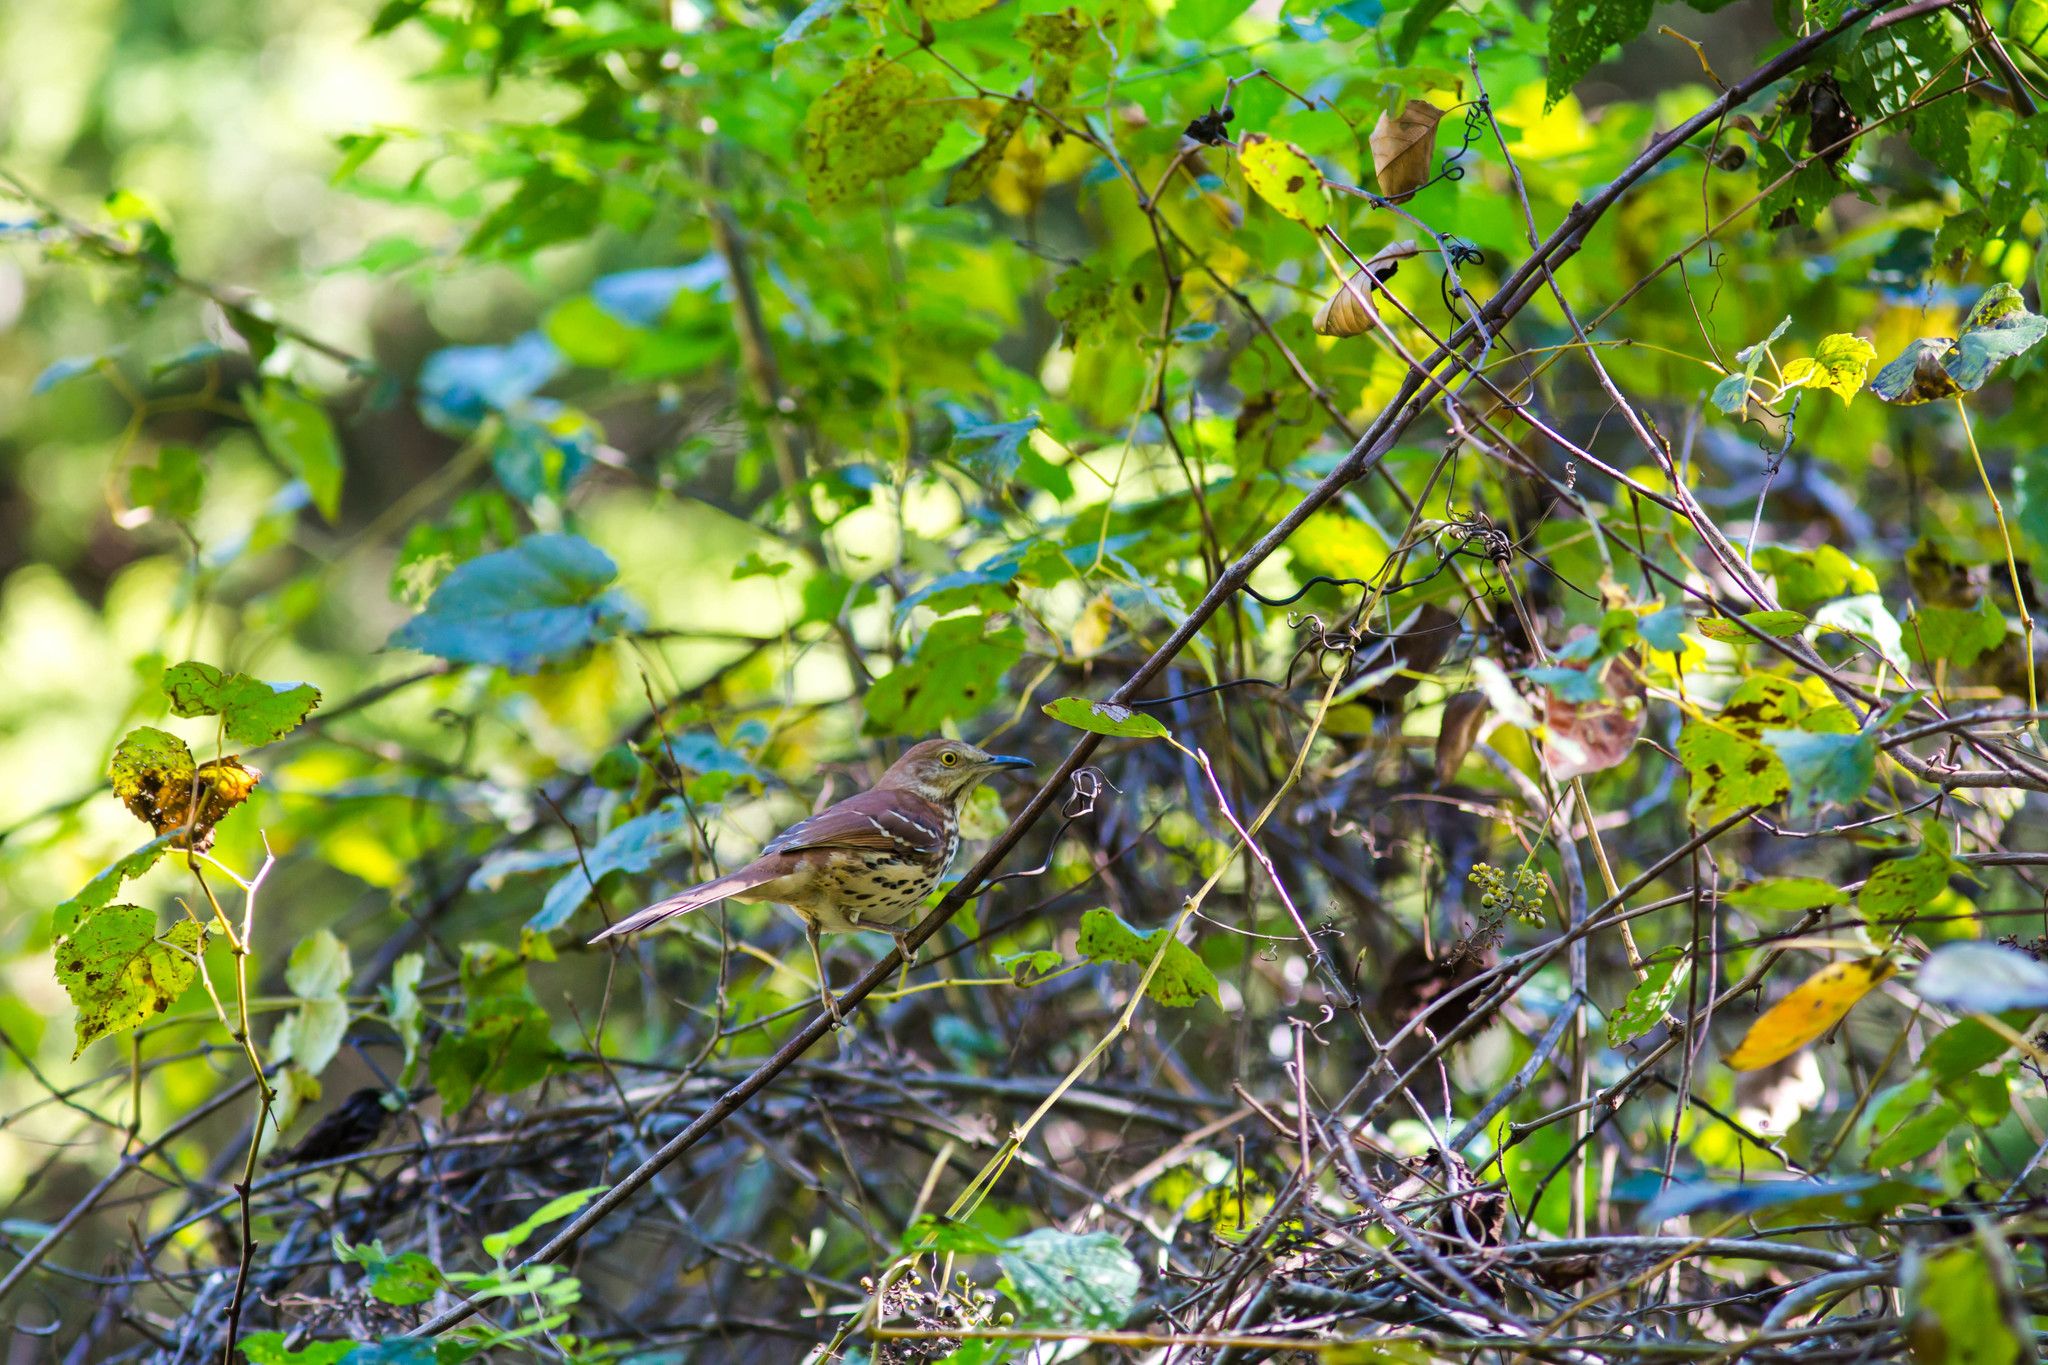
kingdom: Animalia
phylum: Chordata
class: Aves
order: Passeriformes
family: Mimidae
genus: Toxostoma
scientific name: Toxostoma rufum
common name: Brown thrasher
